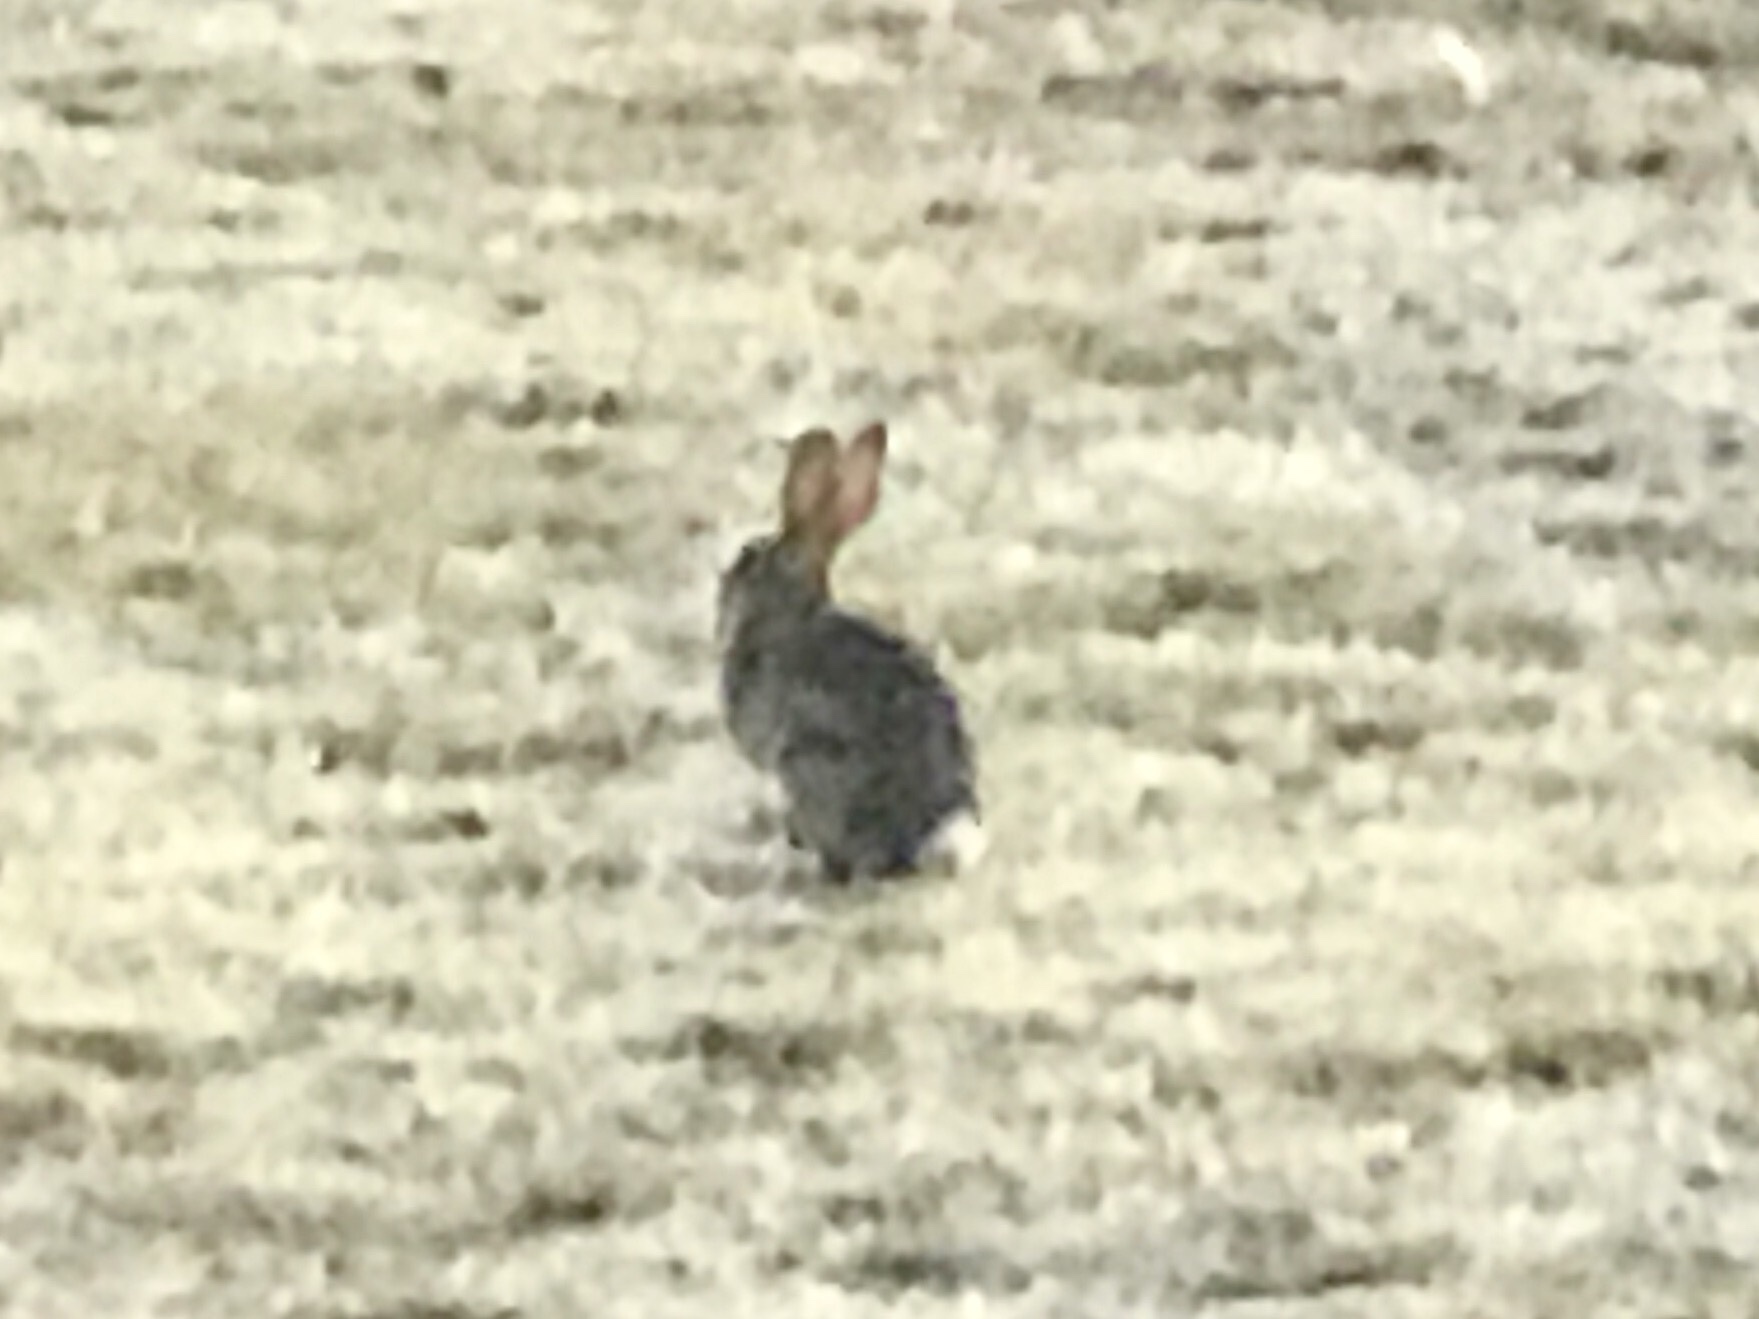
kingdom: Animalia
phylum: Chordata
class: Mammalia
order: Lagomorpha
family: Leporidae
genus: Sylvilagus
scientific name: Sylvilagus audubonii
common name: Desert cottontail
